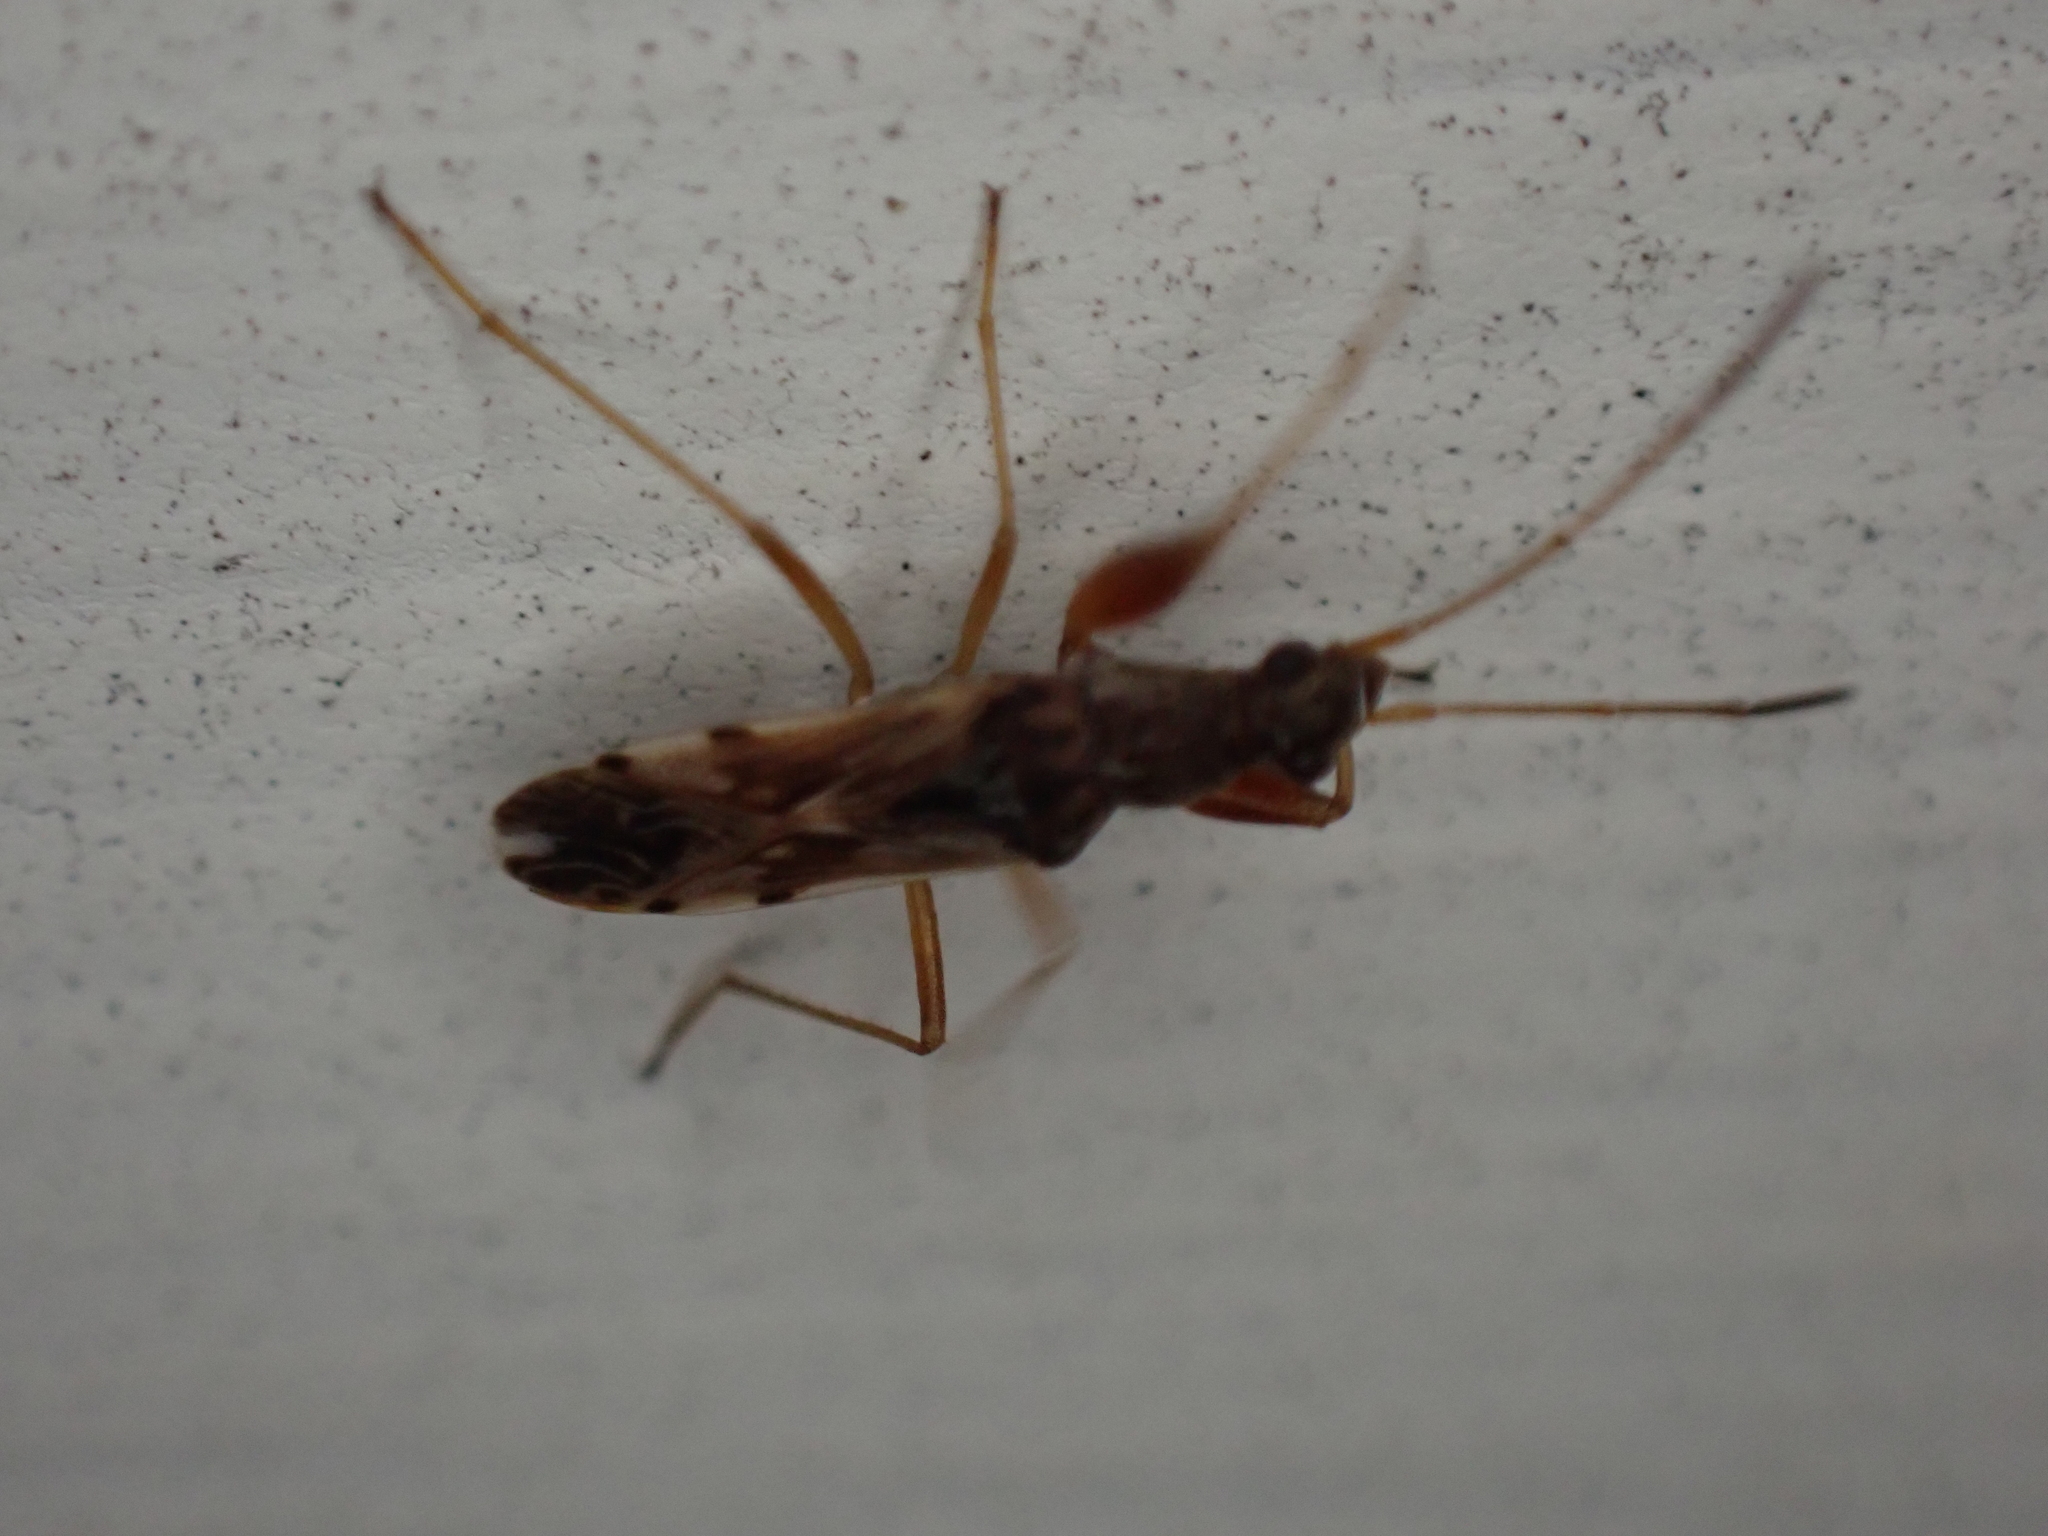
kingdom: Animalia
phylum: Arthropoda
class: Insecta
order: Hemiptera
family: Rhyparochromidae
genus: Neopamera
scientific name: Neopamera bilobata
